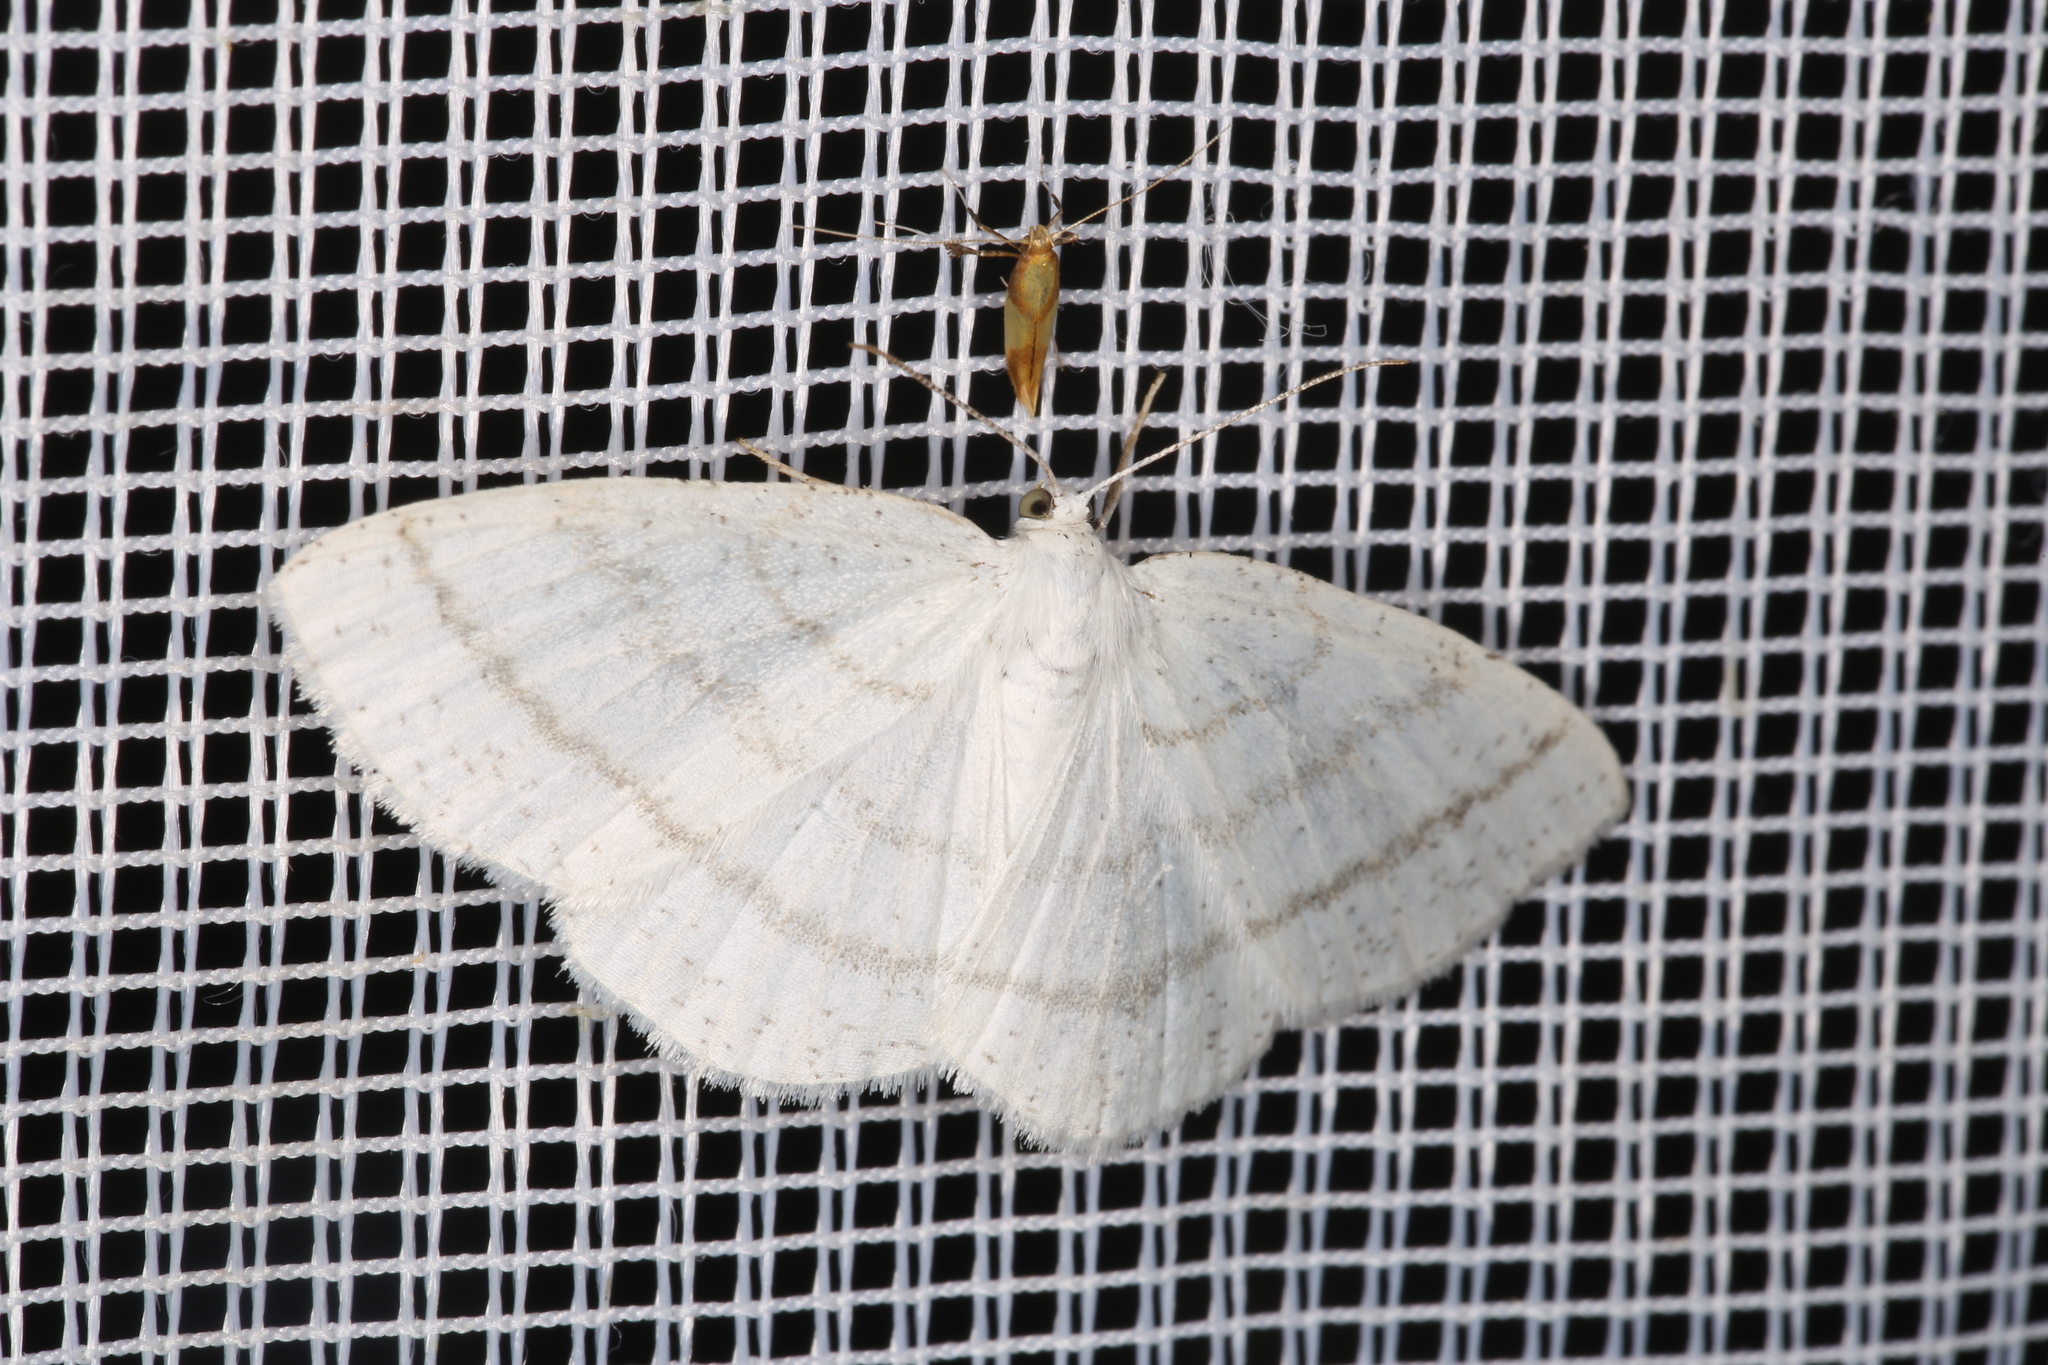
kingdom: Animalia
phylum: Arthropoda
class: Insecta
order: Lepidoptera
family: Geometridae
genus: Cabera
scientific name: Cabera pusaria
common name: Common white wave
